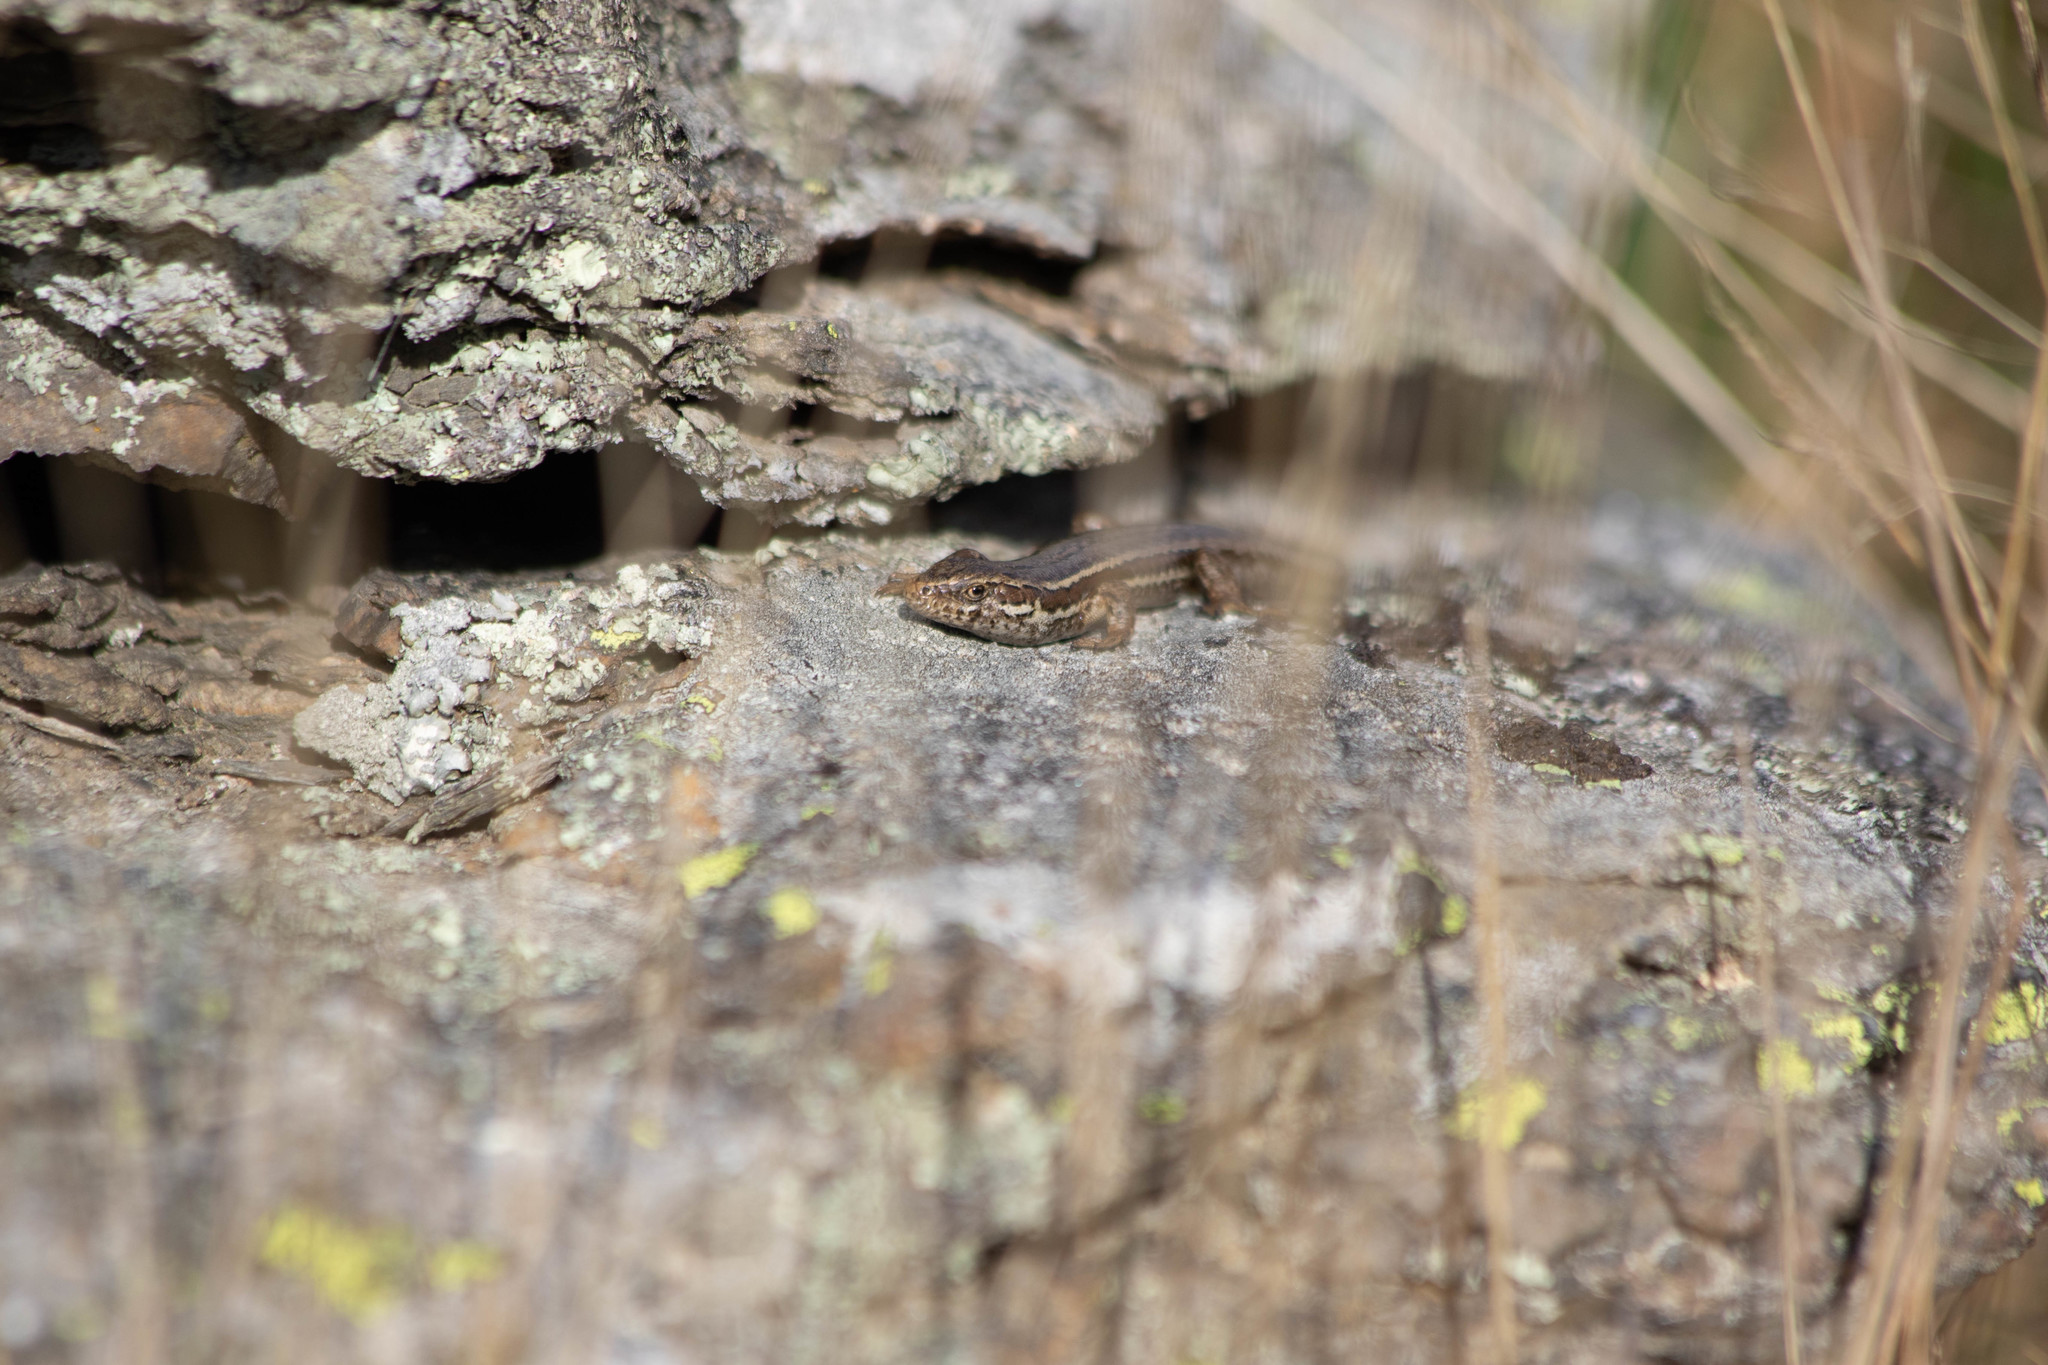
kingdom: Animalia
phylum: Chordata
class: Squamata
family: Scincidae
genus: Oligosoma
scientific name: Oligosoma maccanni
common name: Mccann’s skink
